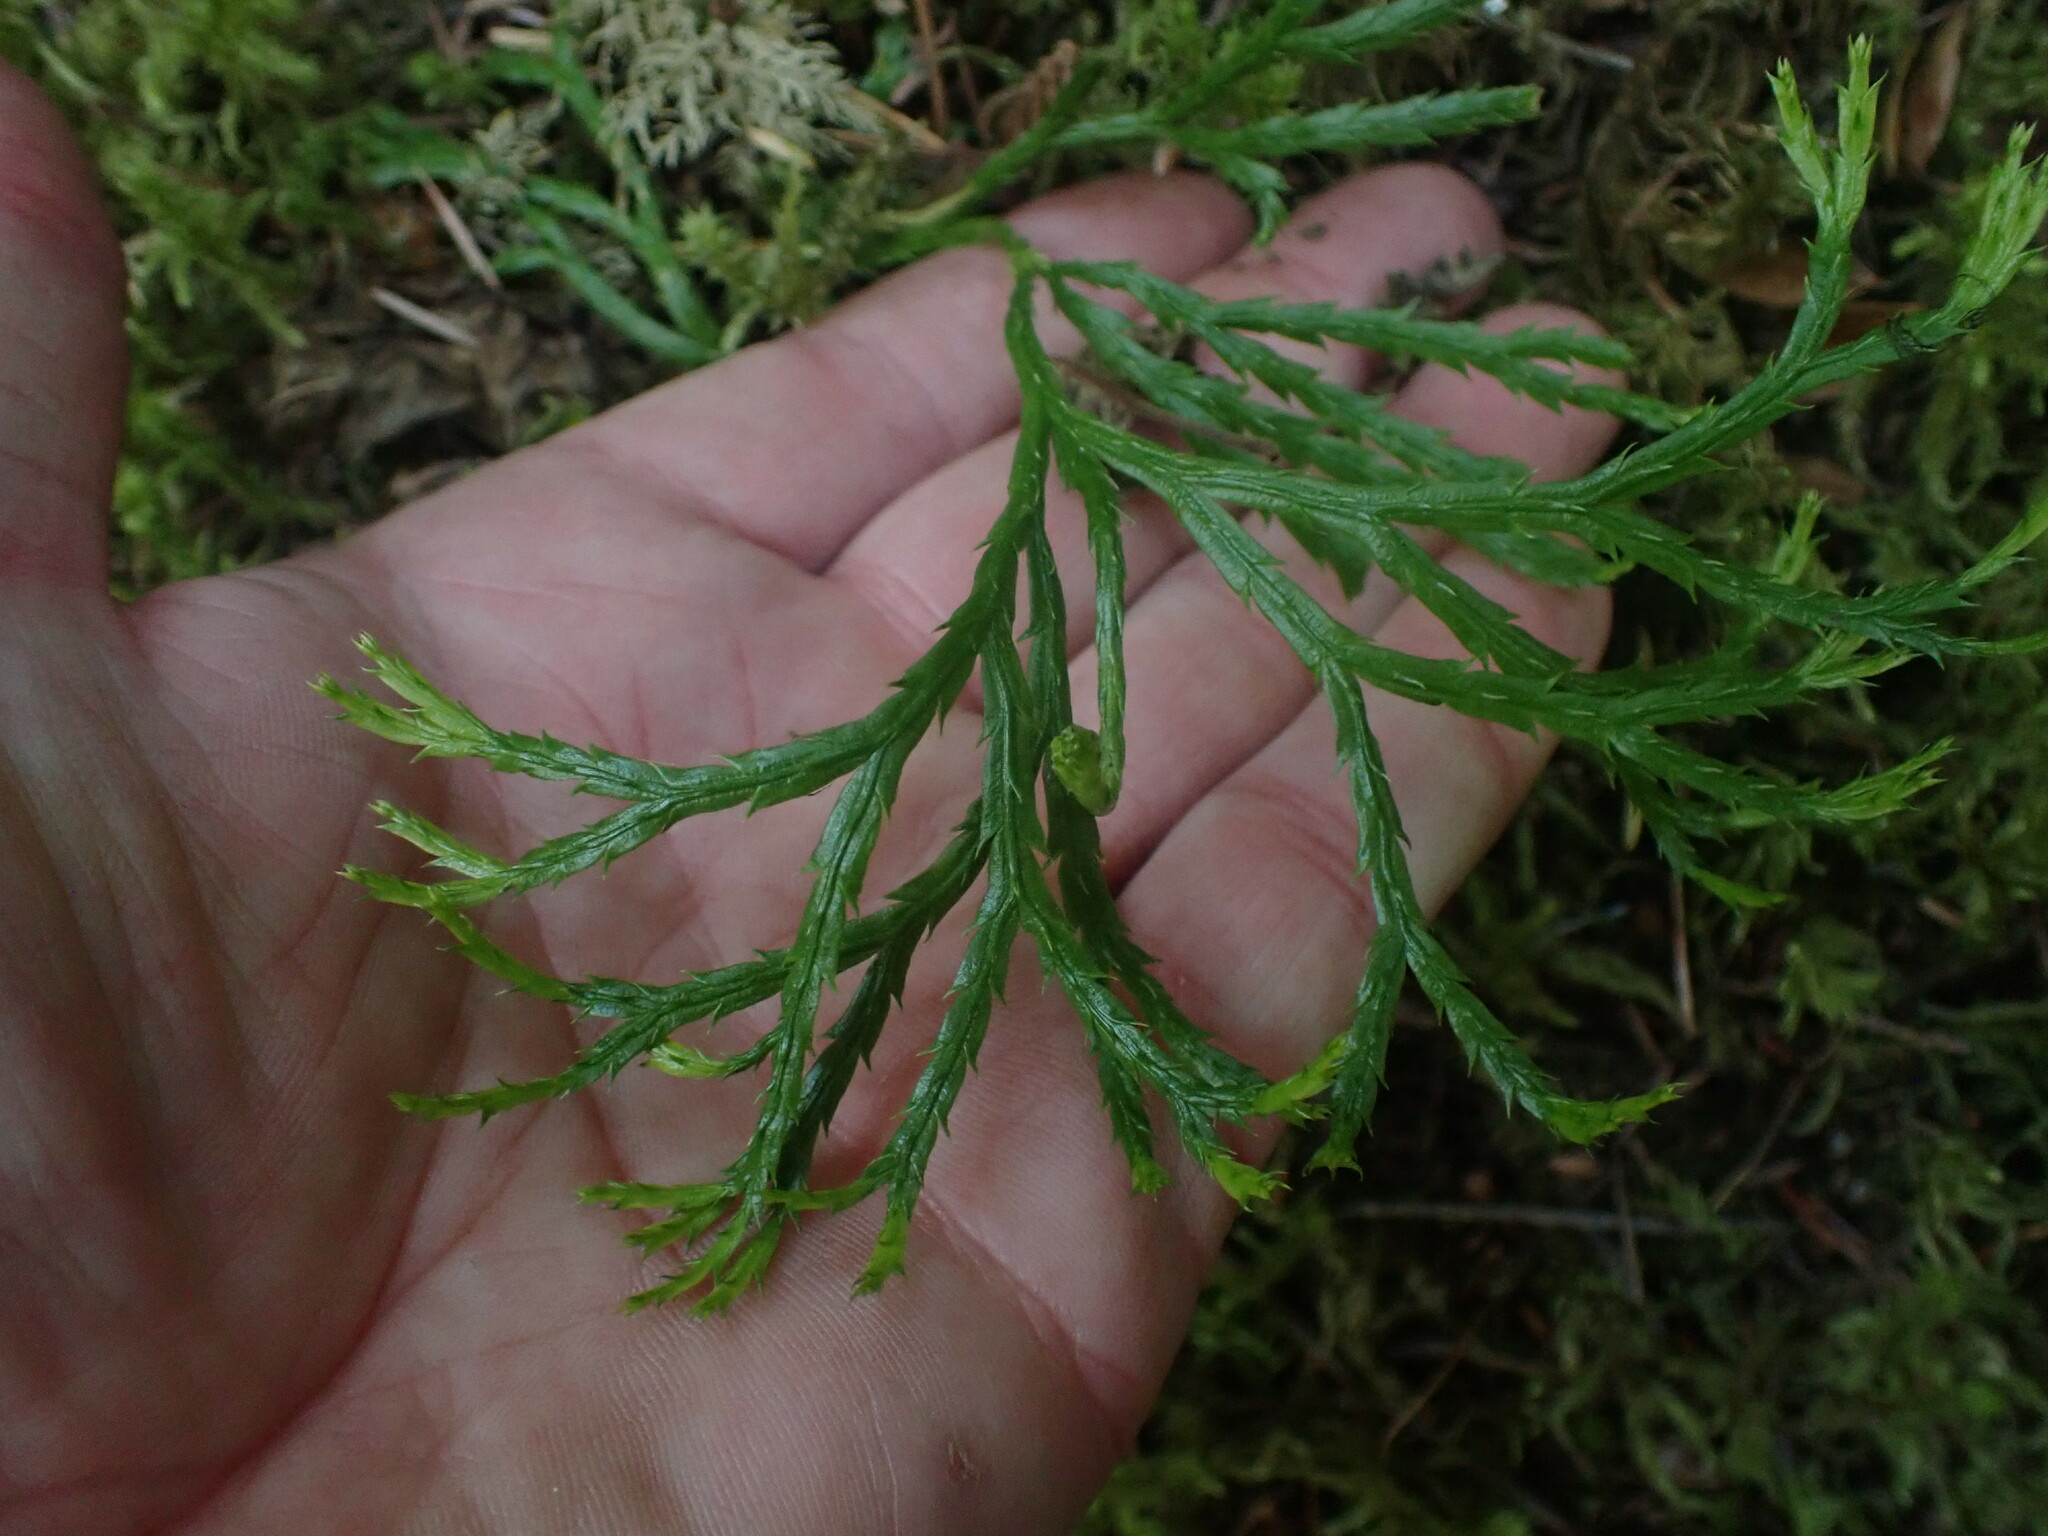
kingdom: Plantae
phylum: Tracheophyta
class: Lycopodiopsida
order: Lycopodiales
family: Lycopodiaceae
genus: Diphasiastrum
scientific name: Diphasiastrum complanatum
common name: Northern running-pine
